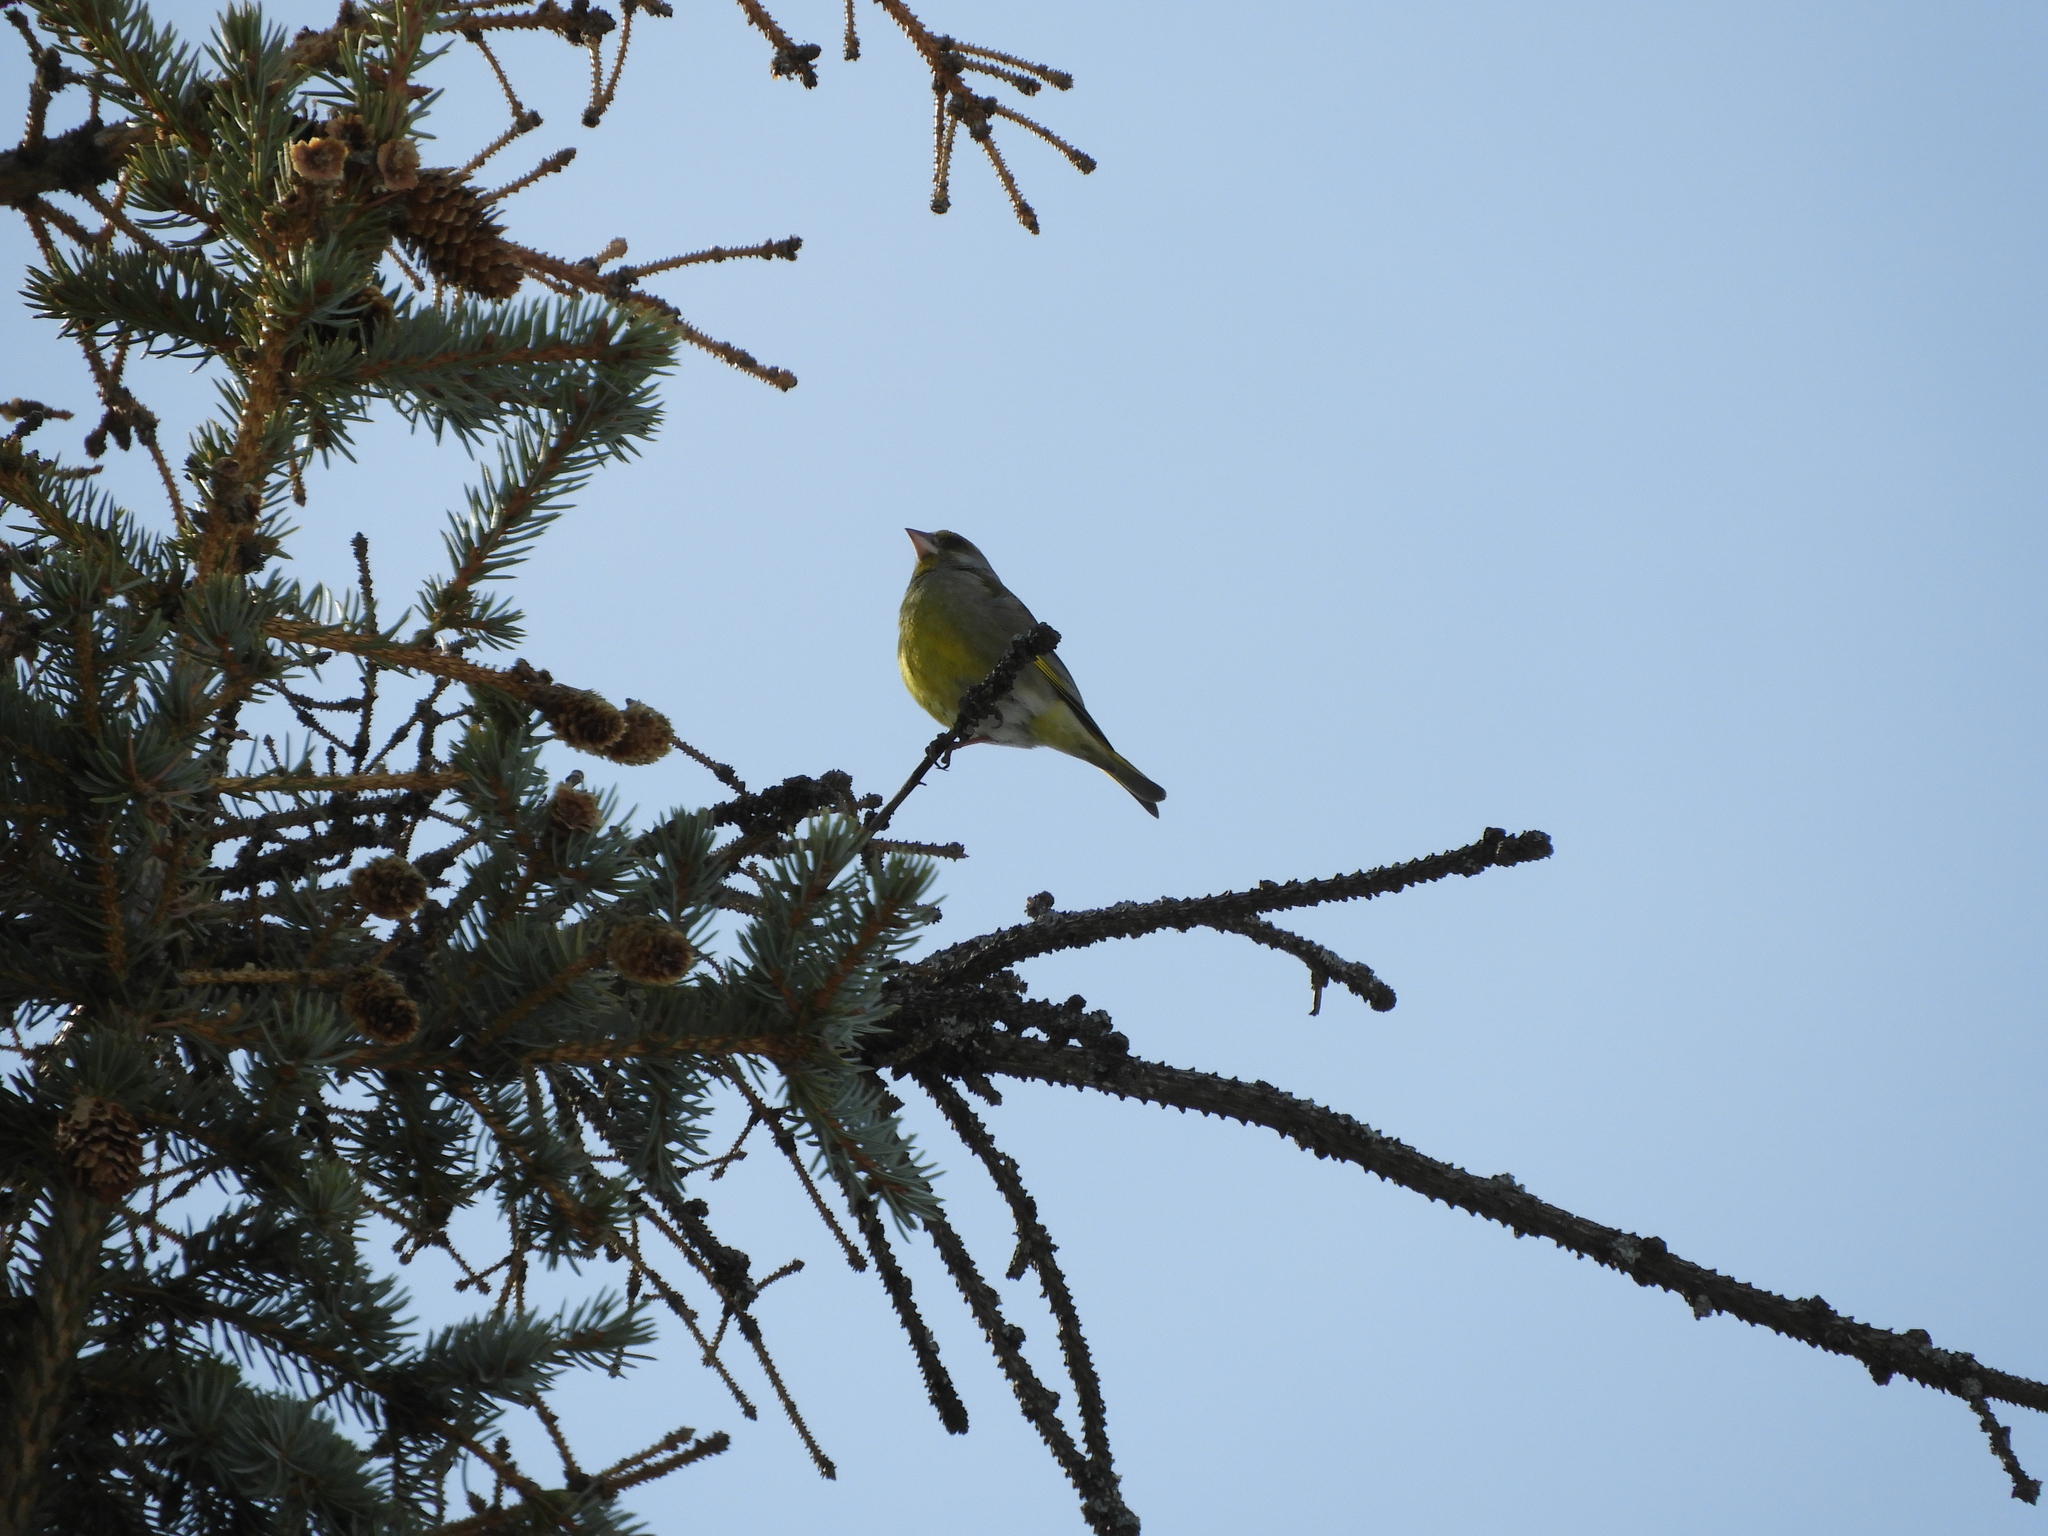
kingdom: Plantae
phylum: Tracheophyta
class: Liliopsida
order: Poales
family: Poaceae
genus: Chloris
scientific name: Chloris chloris
